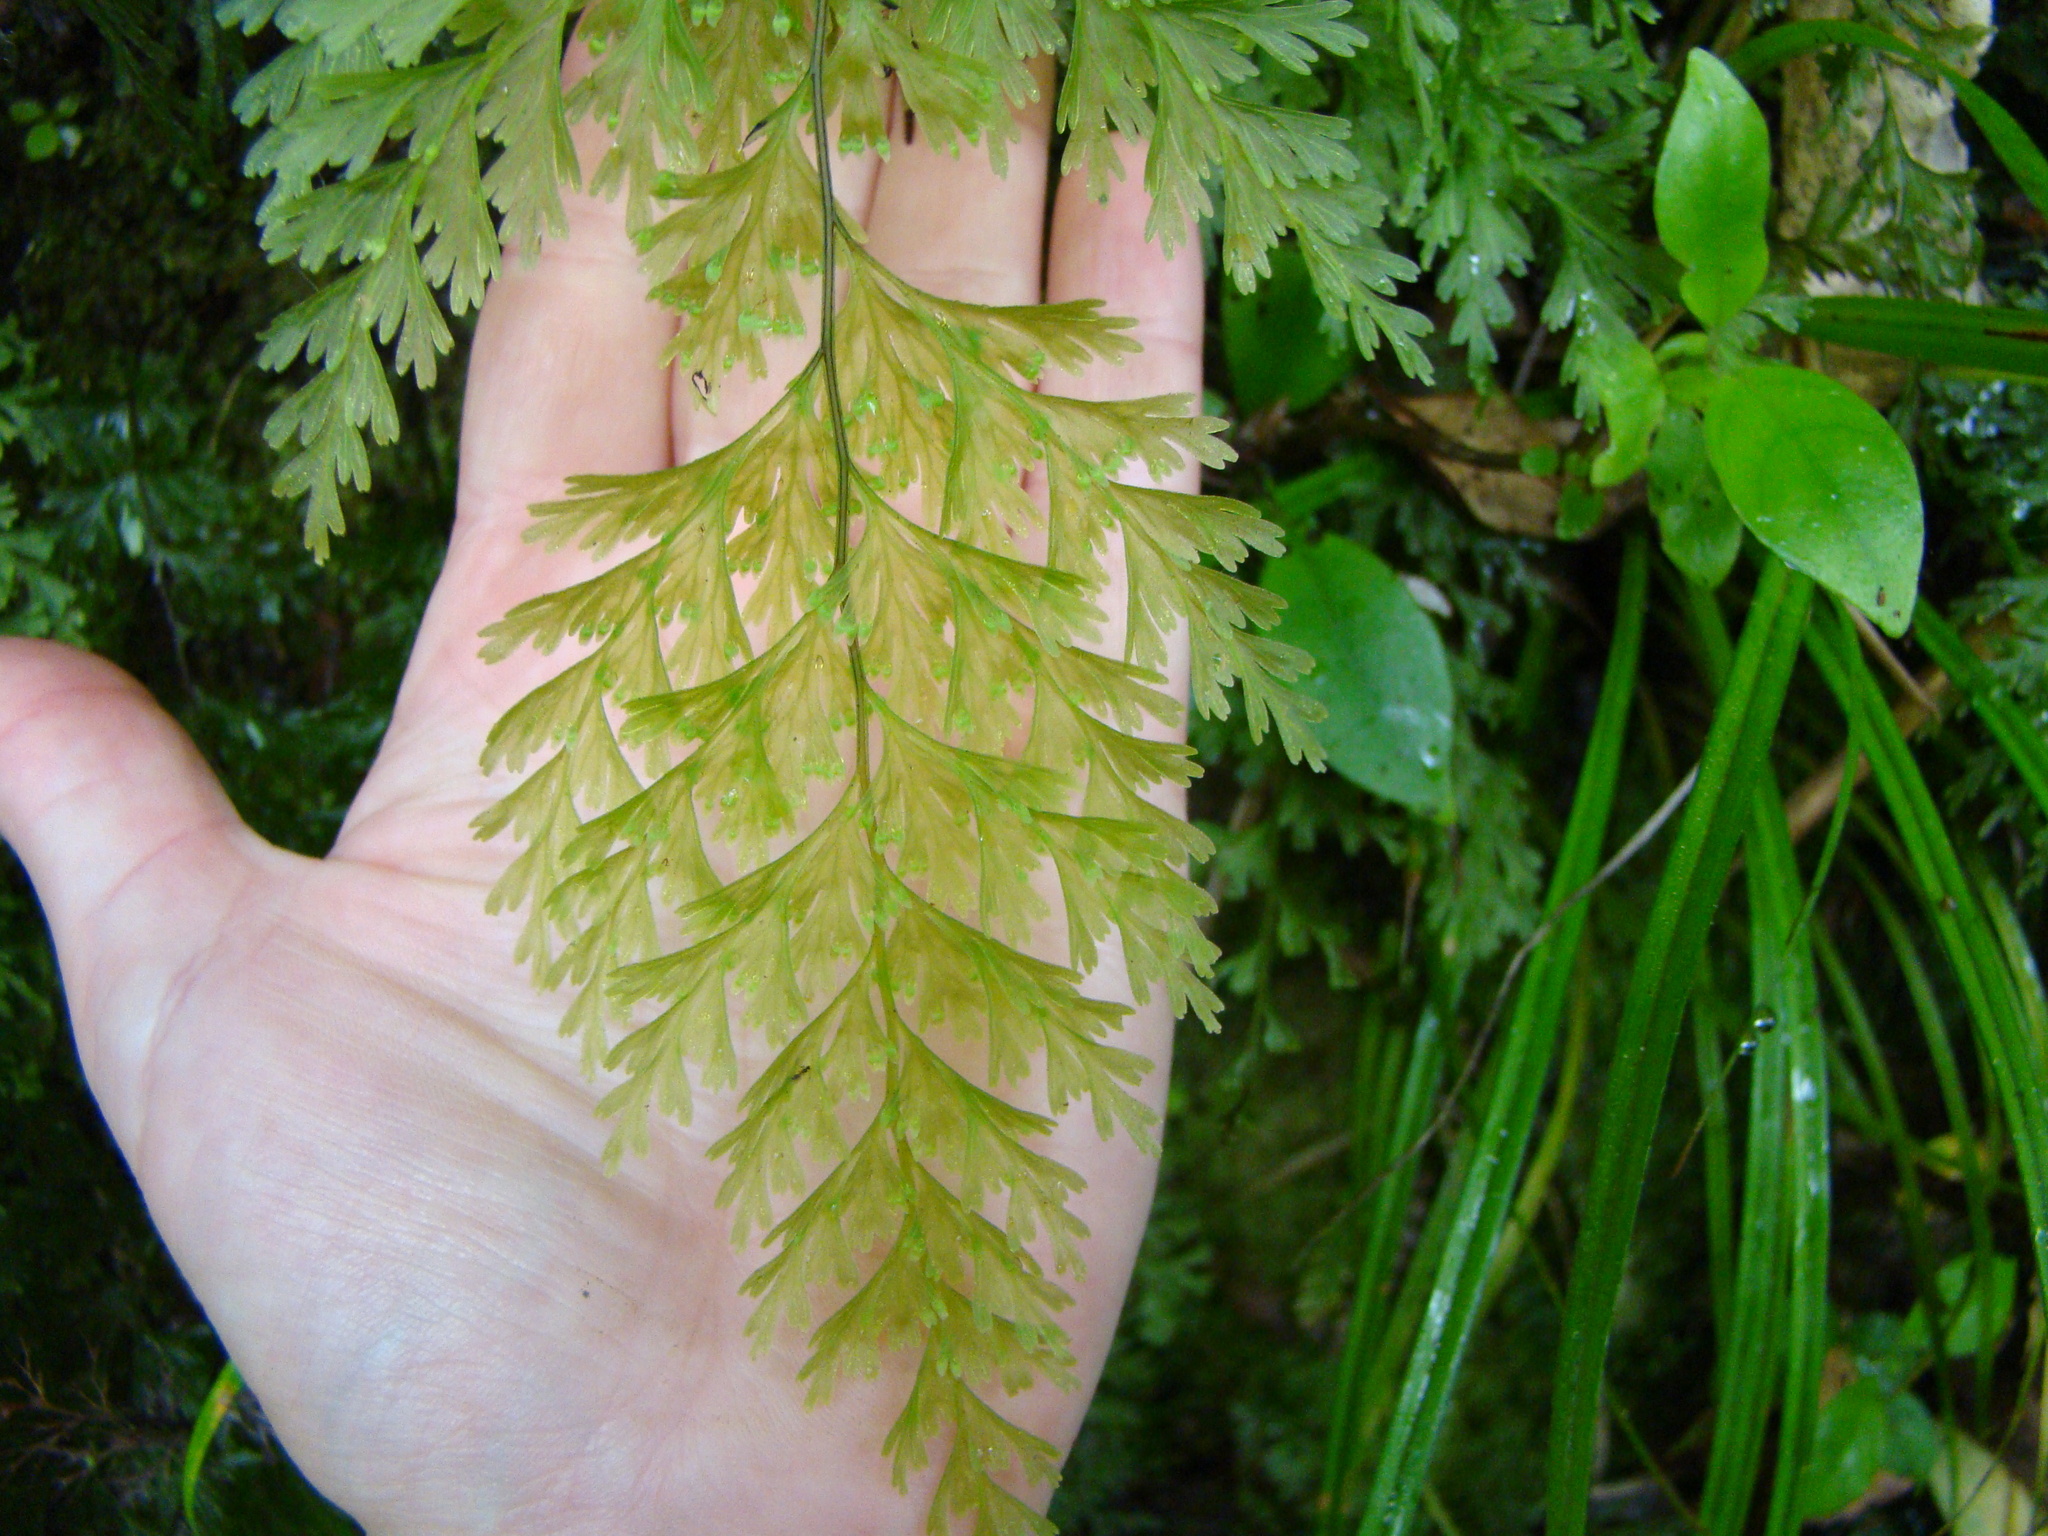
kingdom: Plantae
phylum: Tracheophyta
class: Polypodiopsida
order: Hymenophyllales
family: Hymenophyllaceae
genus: Hymenophyllum
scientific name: Hymenophyllum demissum
